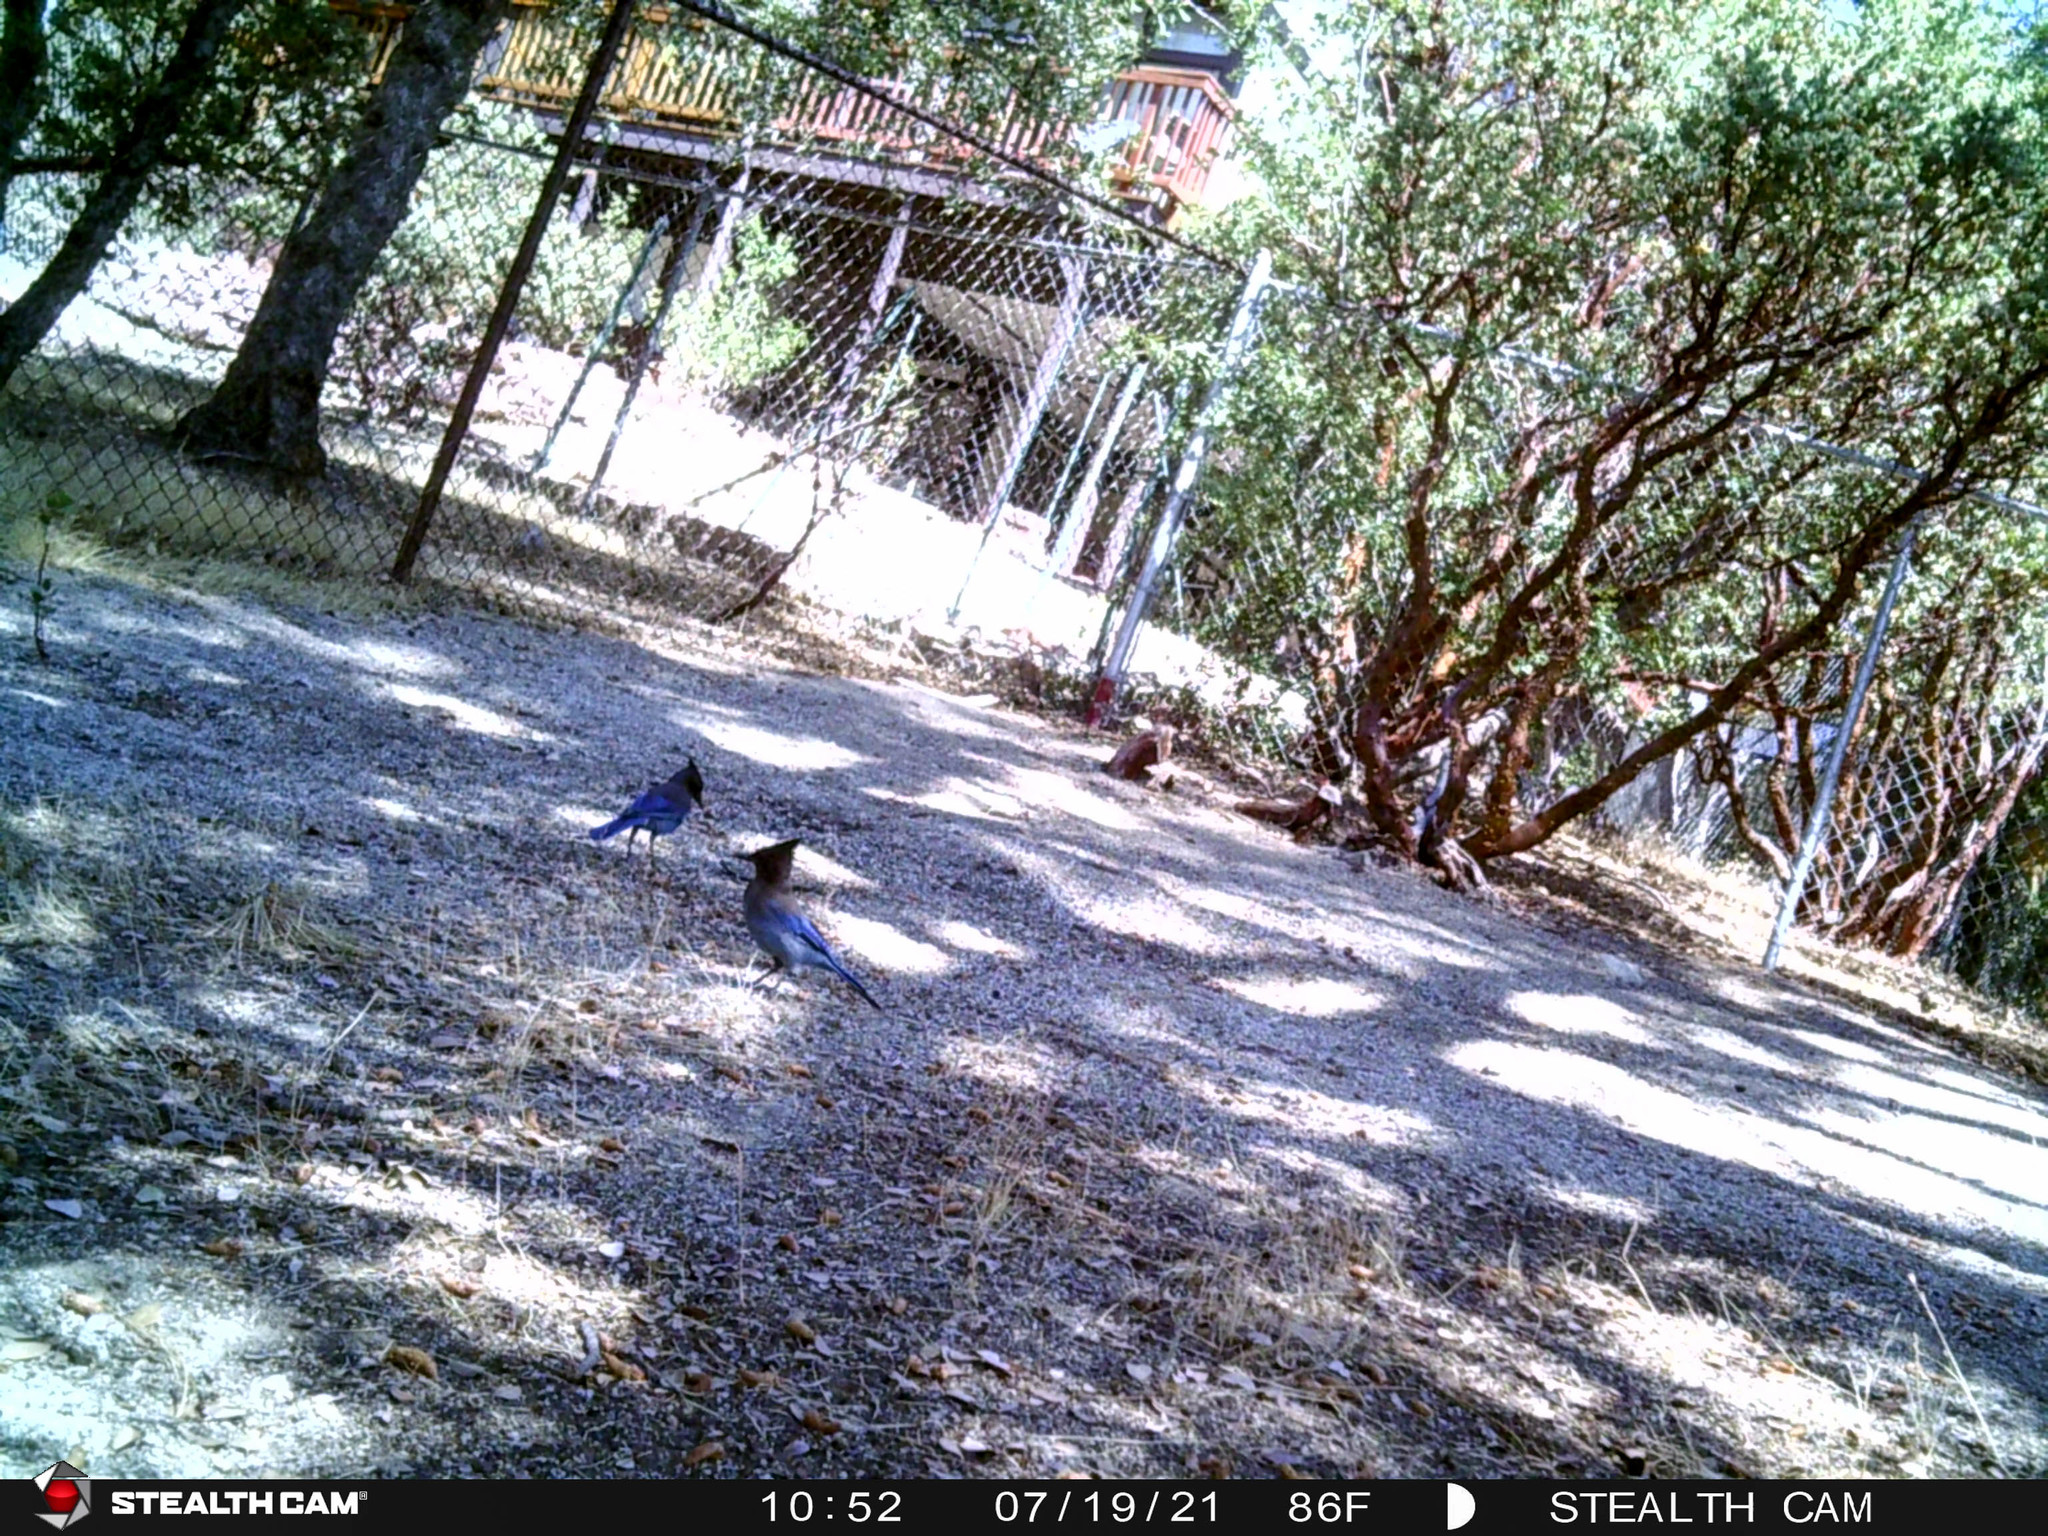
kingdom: Animalia
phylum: Chordata
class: Aves
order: Passeriformes
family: Corvidae
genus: Cyanocitta
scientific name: Cyanocitta stelleri
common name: Steller's jay
